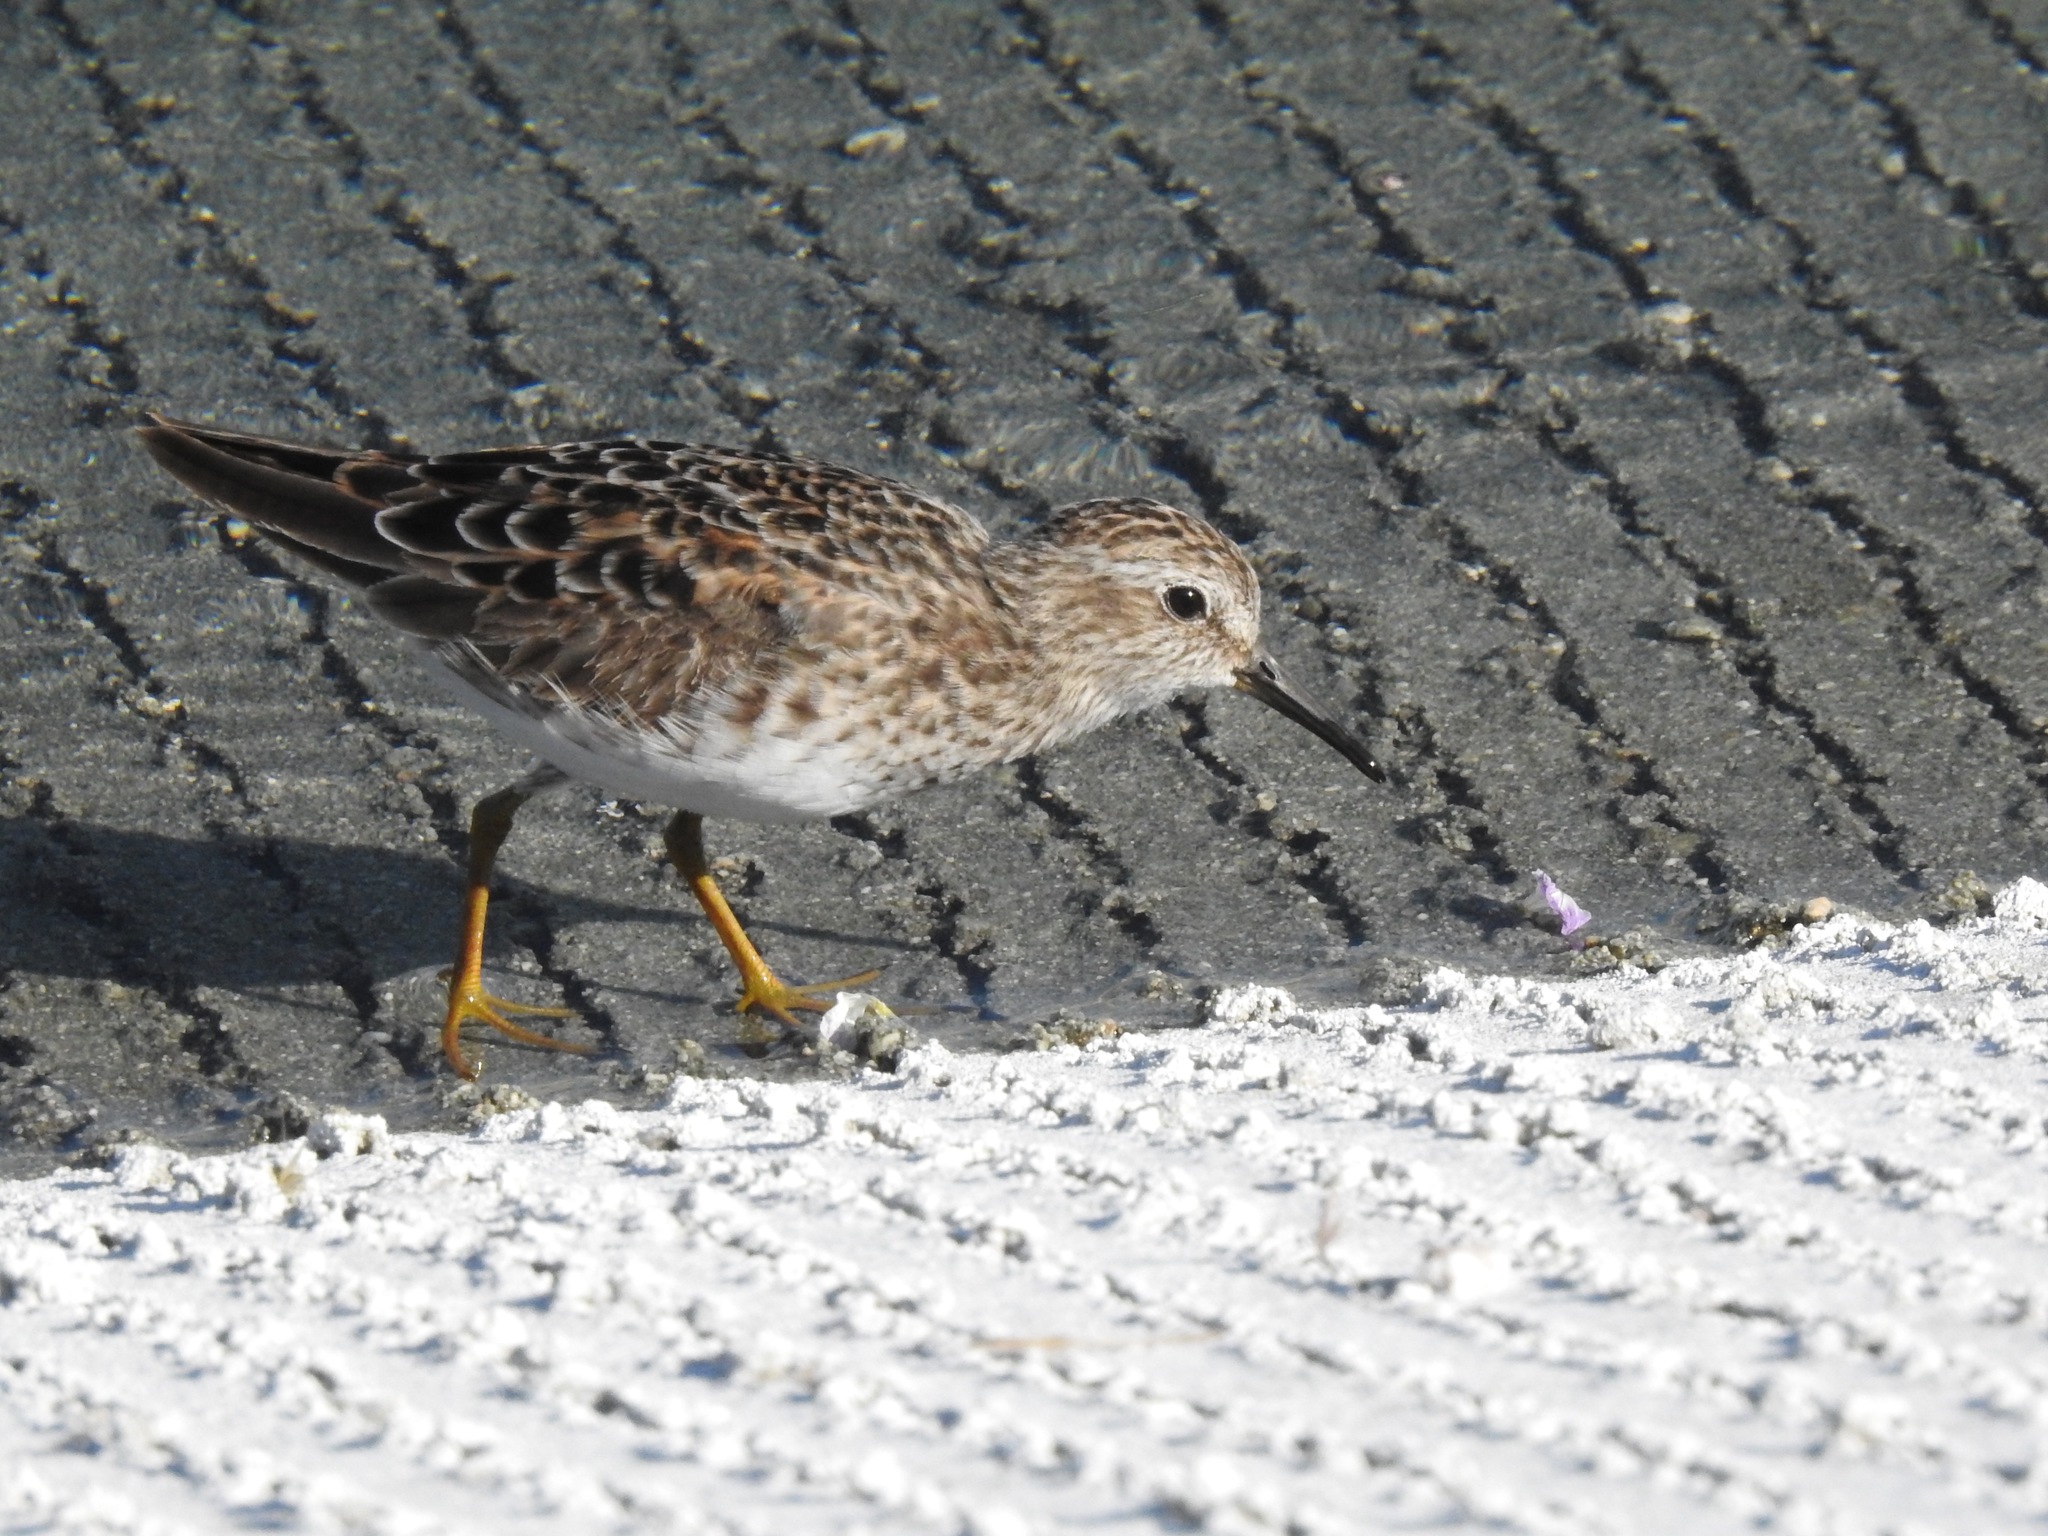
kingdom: Animalia
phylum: Chordata
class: Aves
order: Charadriiformes
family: Scolopacidae
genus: Calidris
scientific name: Calidris minutilla
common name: Least sandpiper
